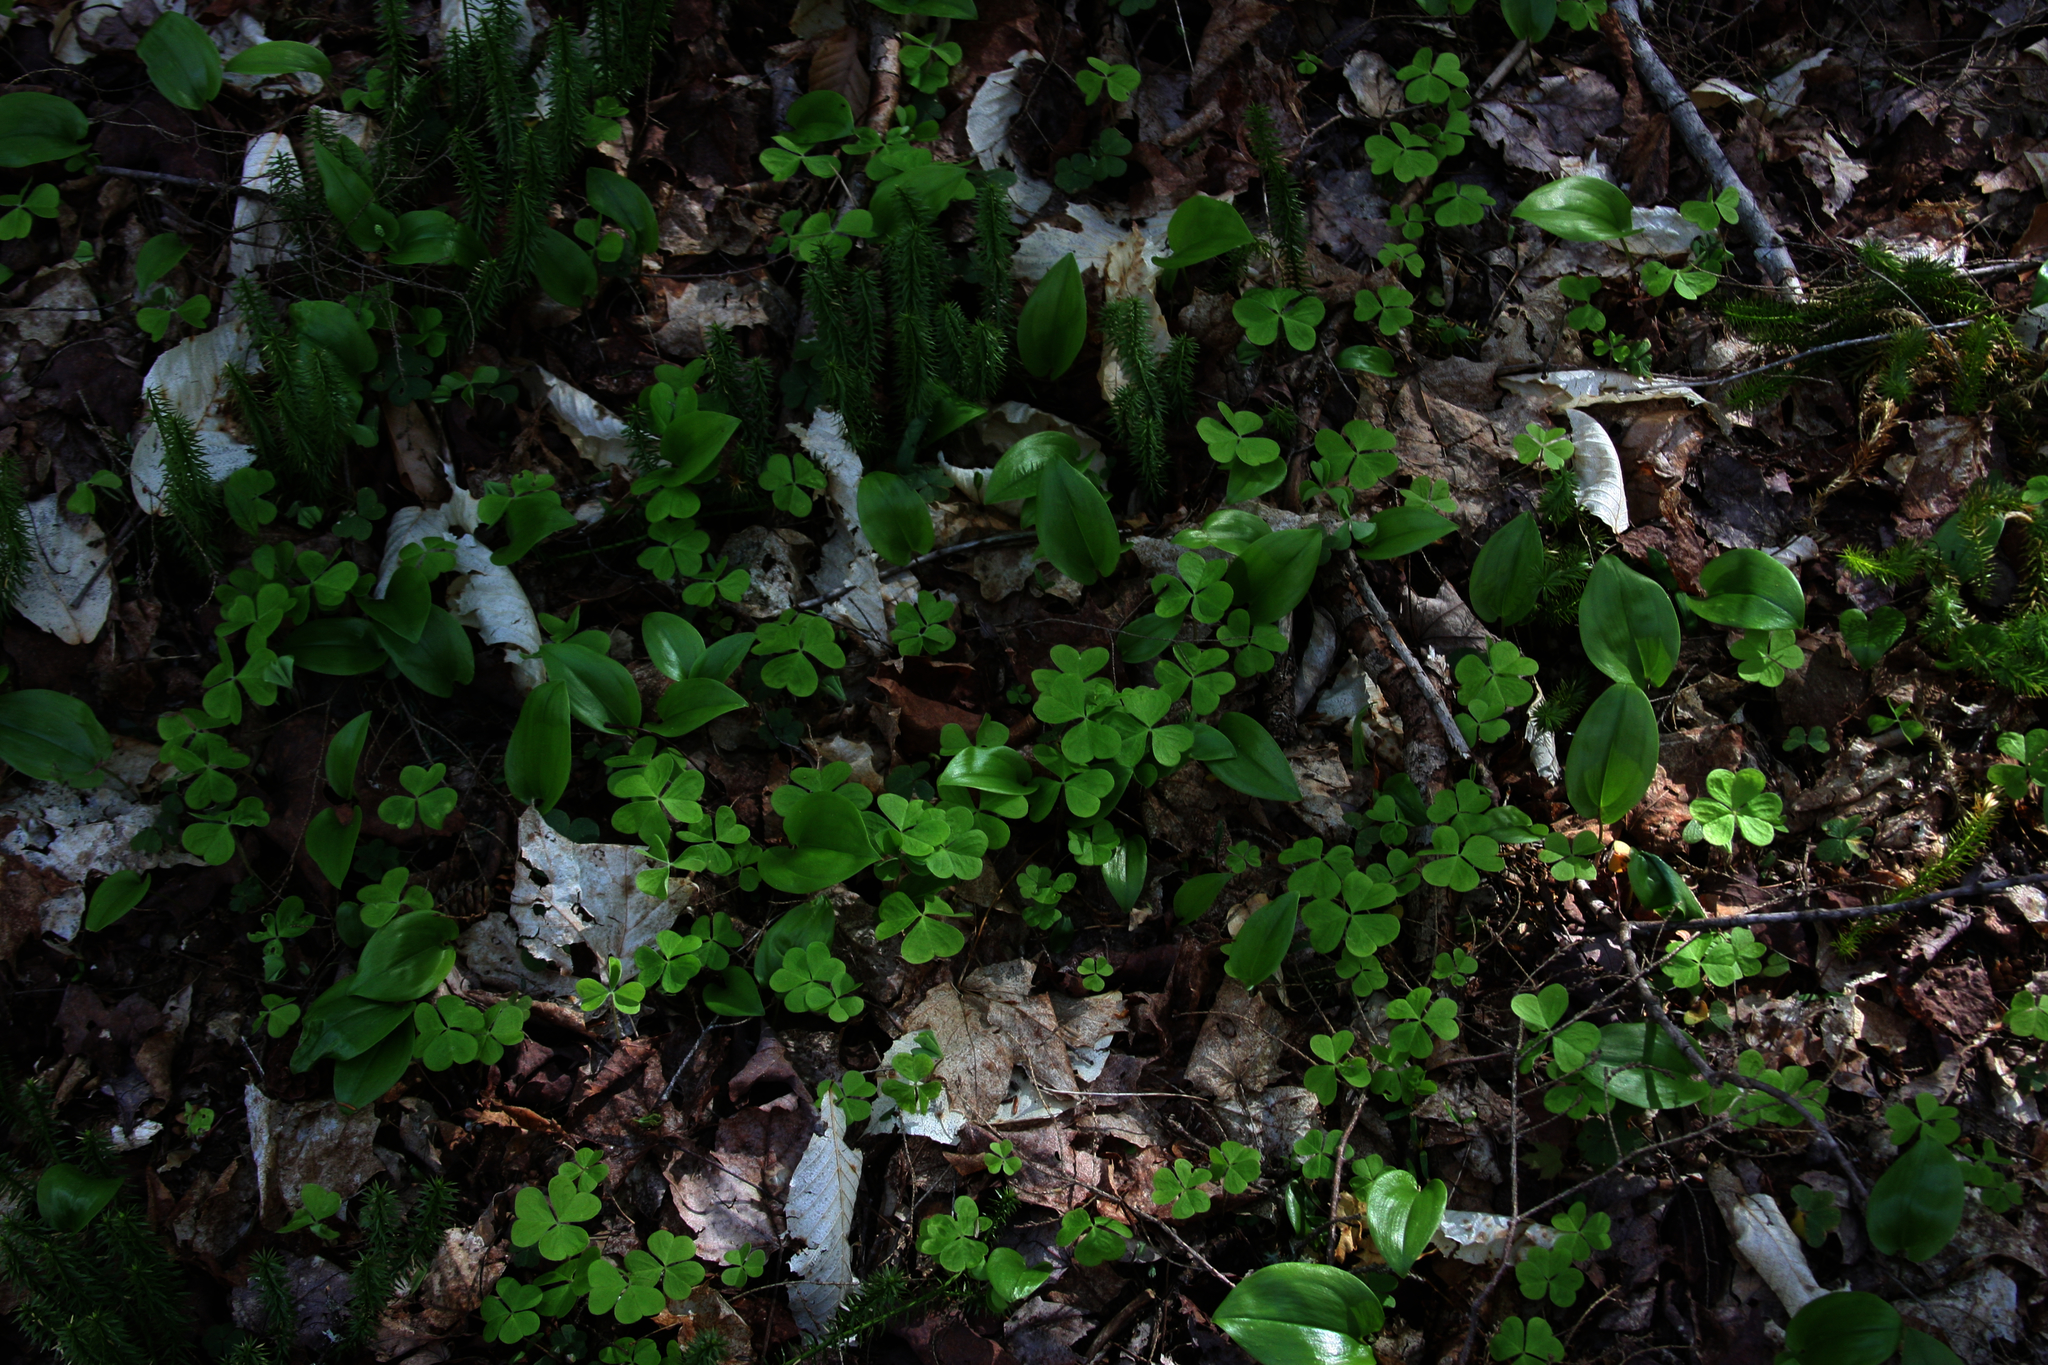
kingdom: Plantae
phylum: Tracheophyta
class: Magnoliopsida
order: Oxalidales
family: Oxalidaceae
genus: Oxalis
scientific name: Oxalis montana
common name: American wood-sorrel
